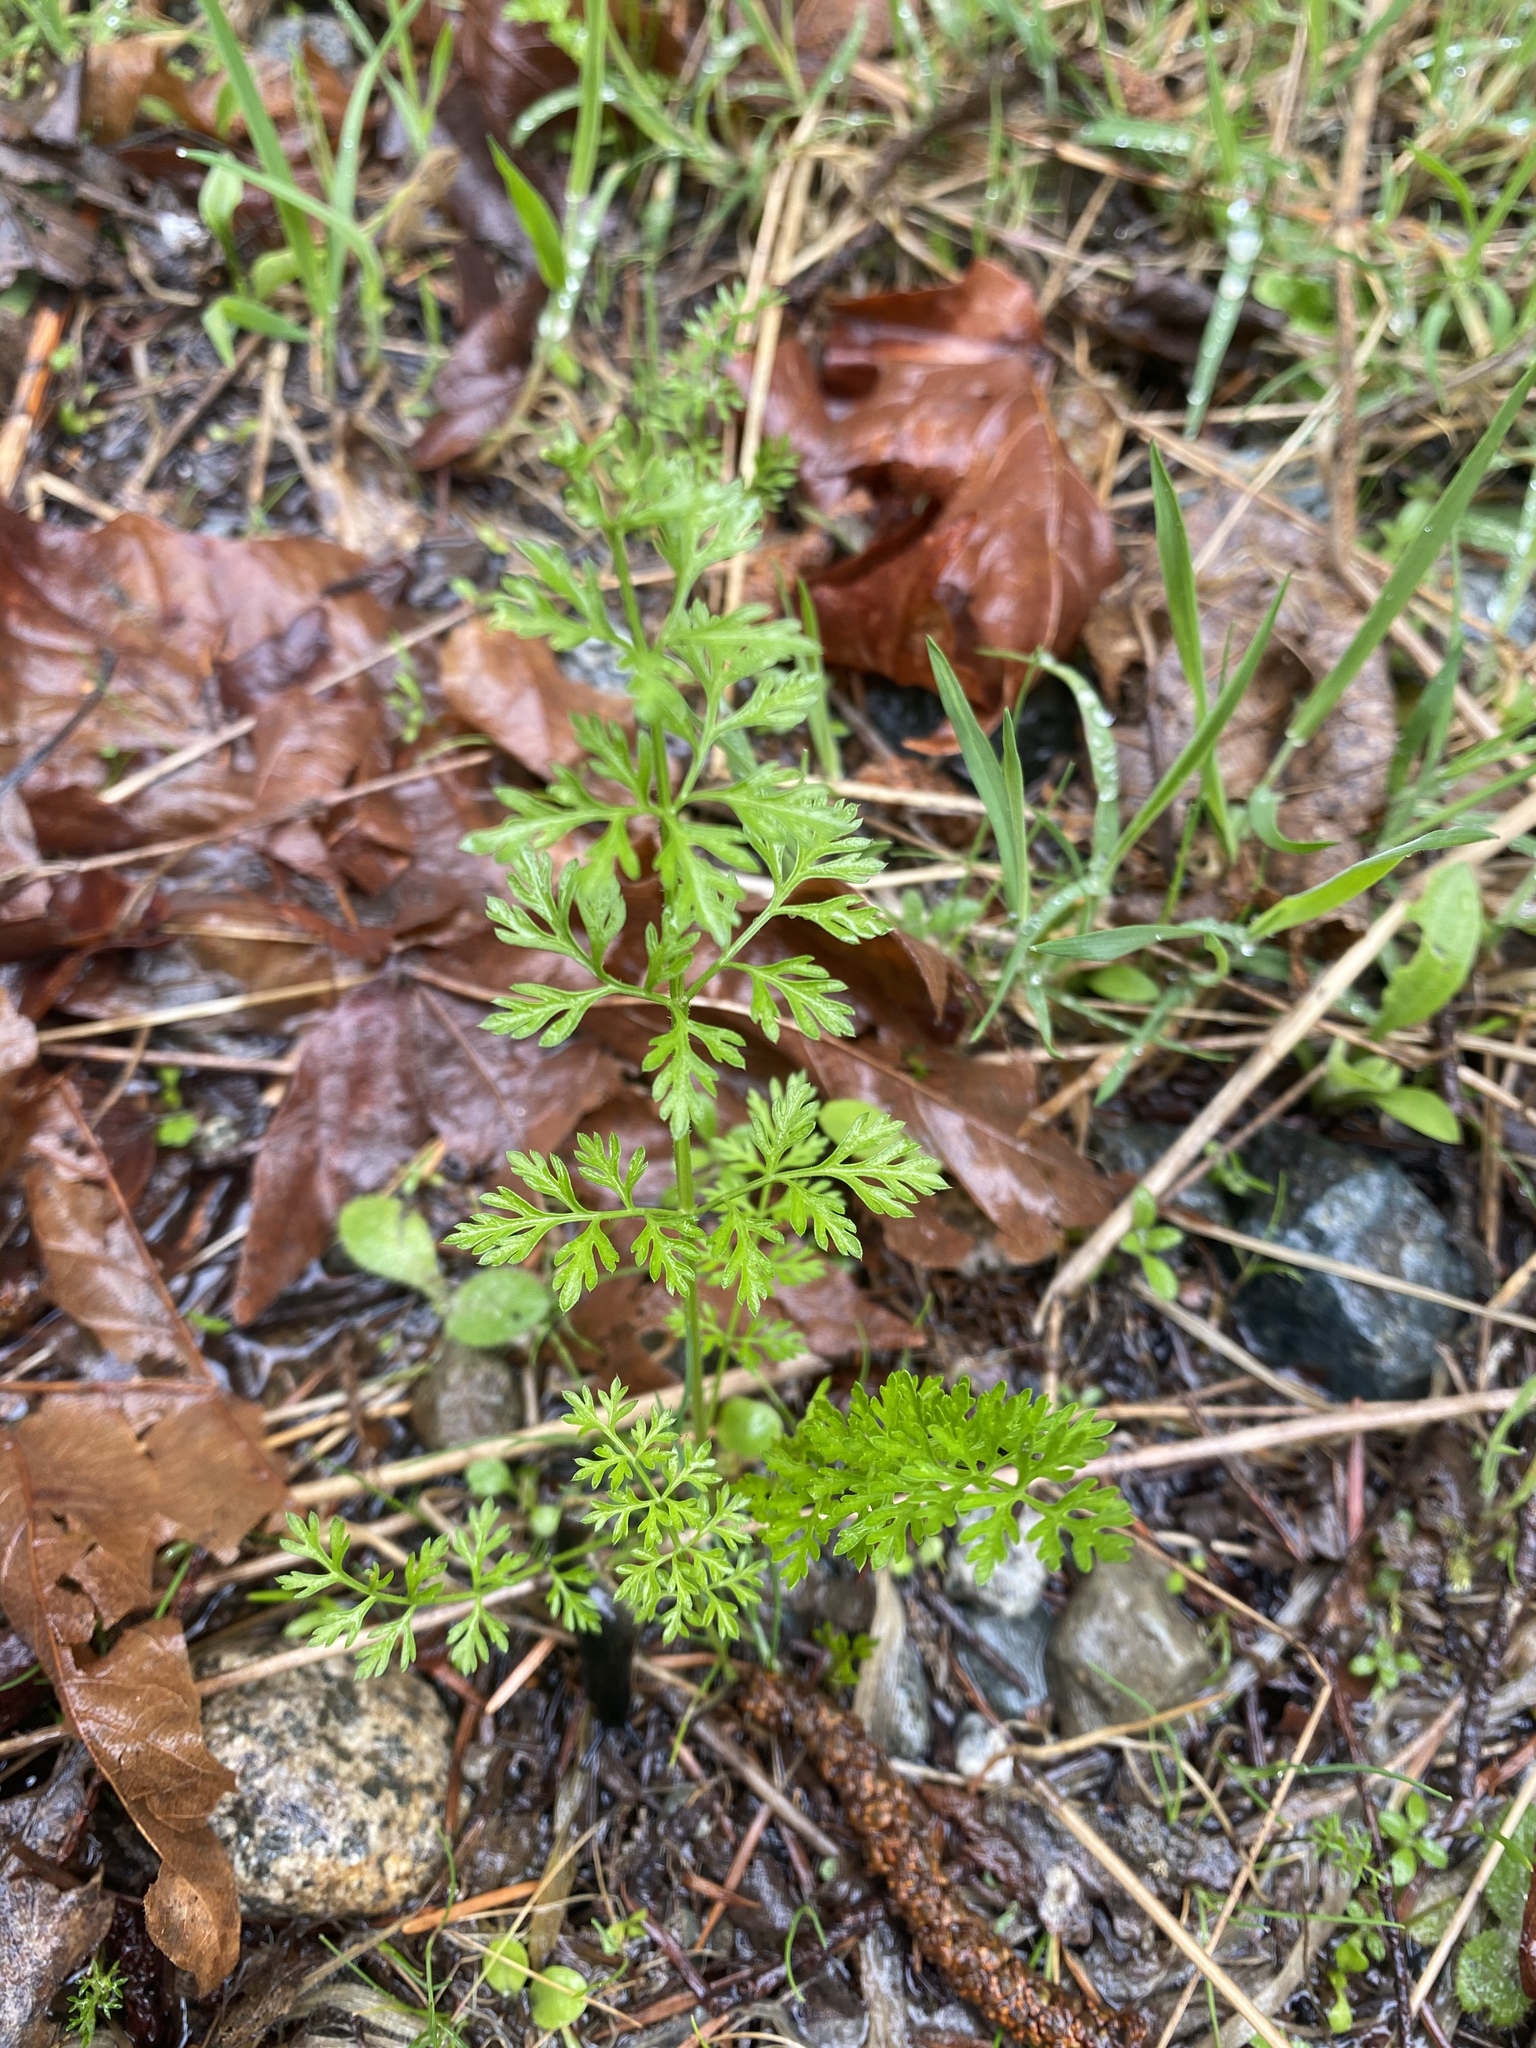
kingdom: Plantae
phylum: Tracheophyta
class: Magnoliopsida
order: Apiales
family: Apiaceae
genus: Daucus
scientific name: Daucus carota
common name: Wild carrot
